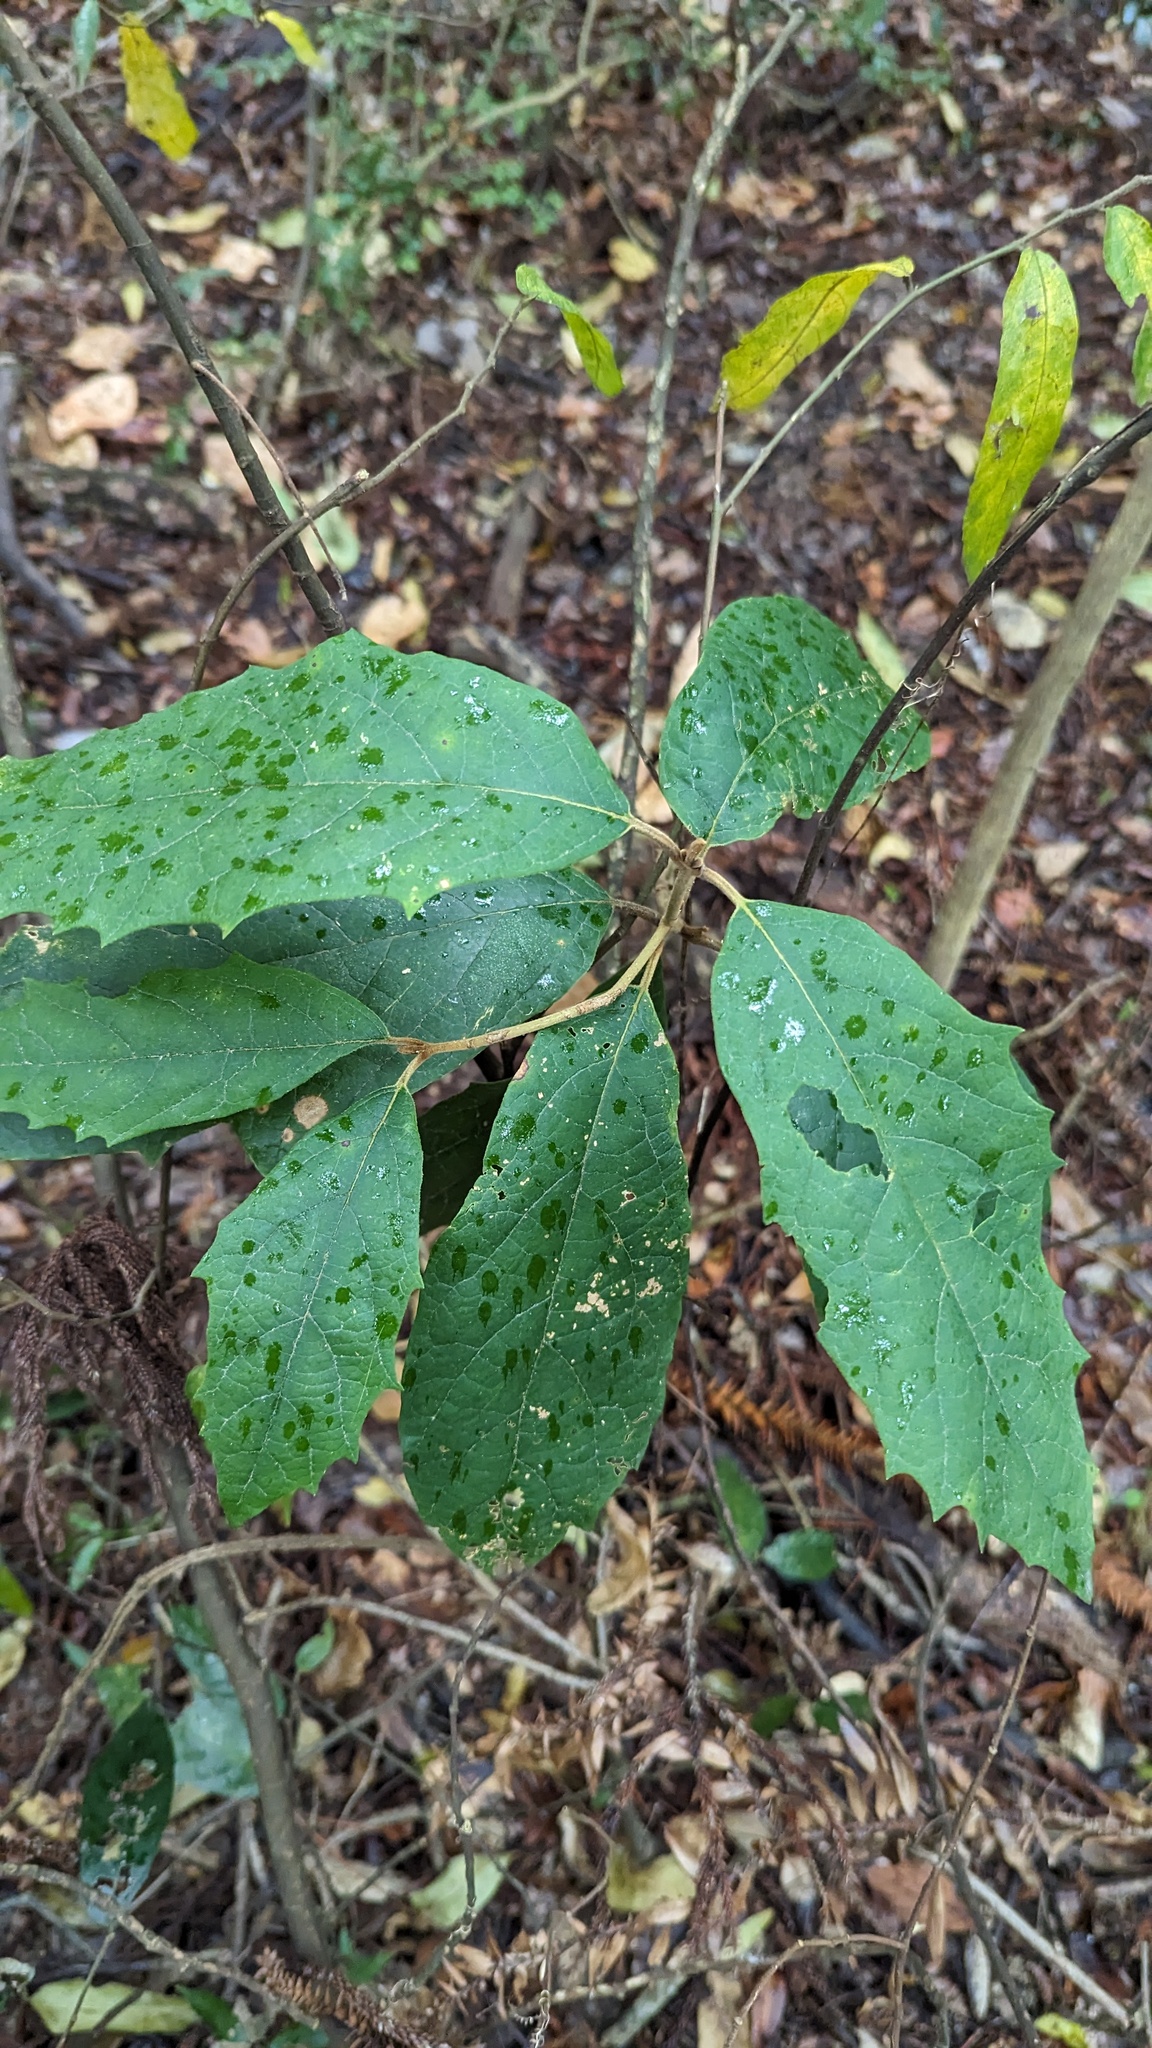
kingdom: Plantae
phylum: Tracheophyta
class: Magnoliopsida
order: Lamiales
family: Lamiaceae
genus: Gmelina
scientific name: Gmelina leichhardtii
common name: Queensland-beech
